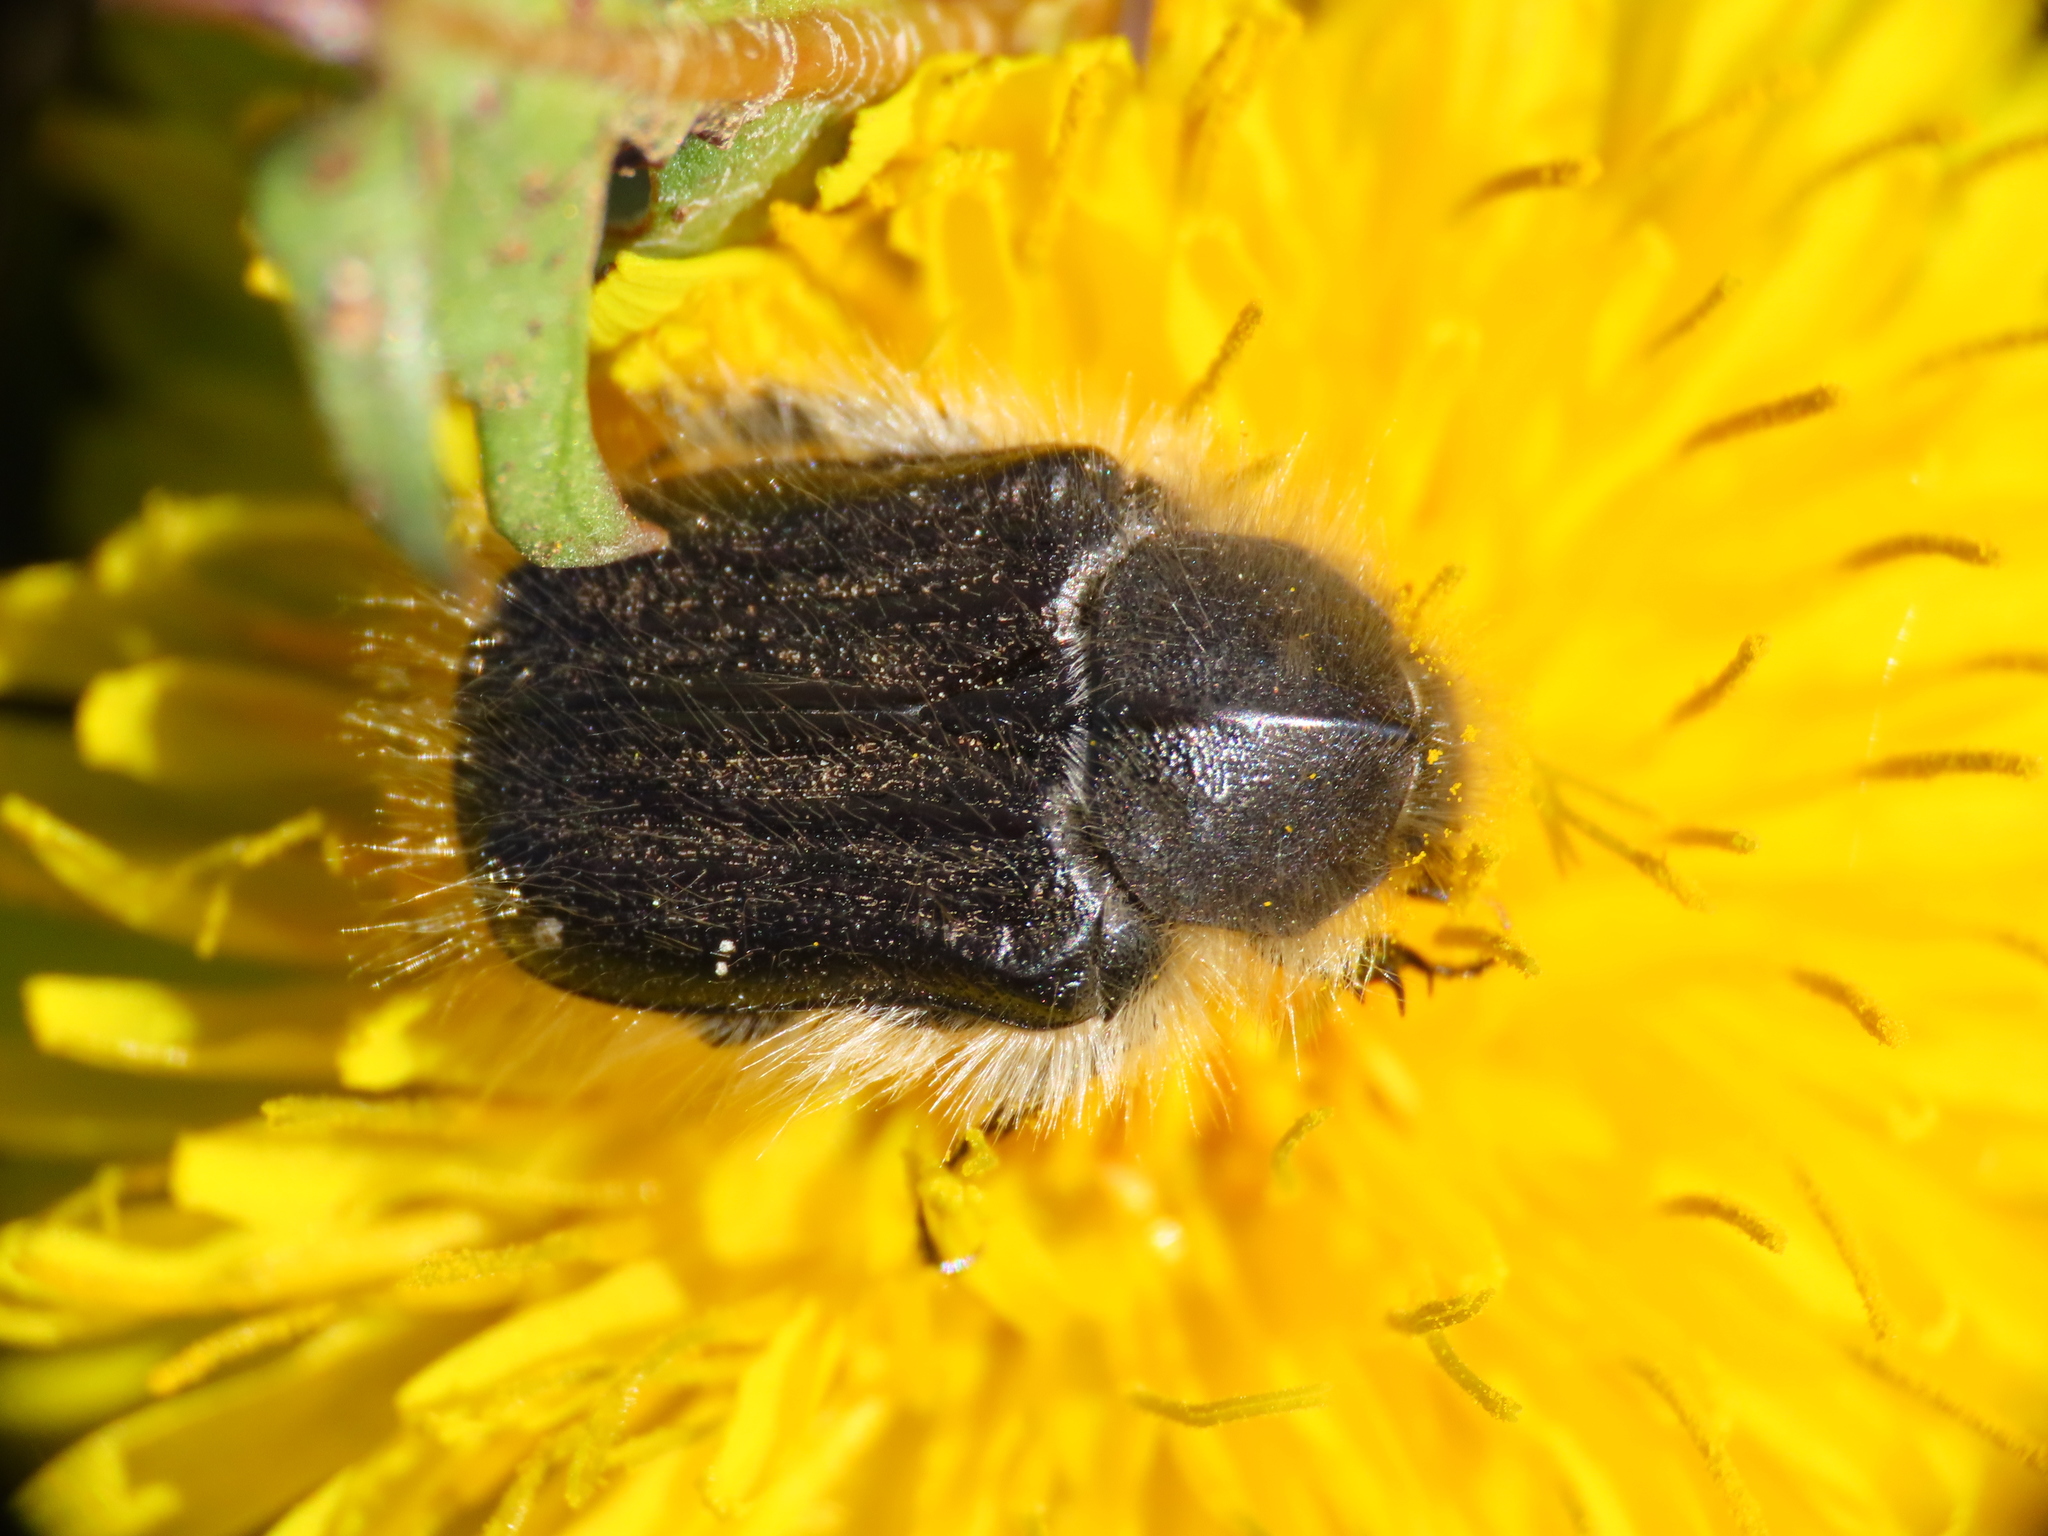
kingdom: Animalia
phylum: Arthropoda
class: Insecta
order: Coleoptera
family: Scarabaeidae
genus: Tropinota
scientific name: Tropinota hirta
